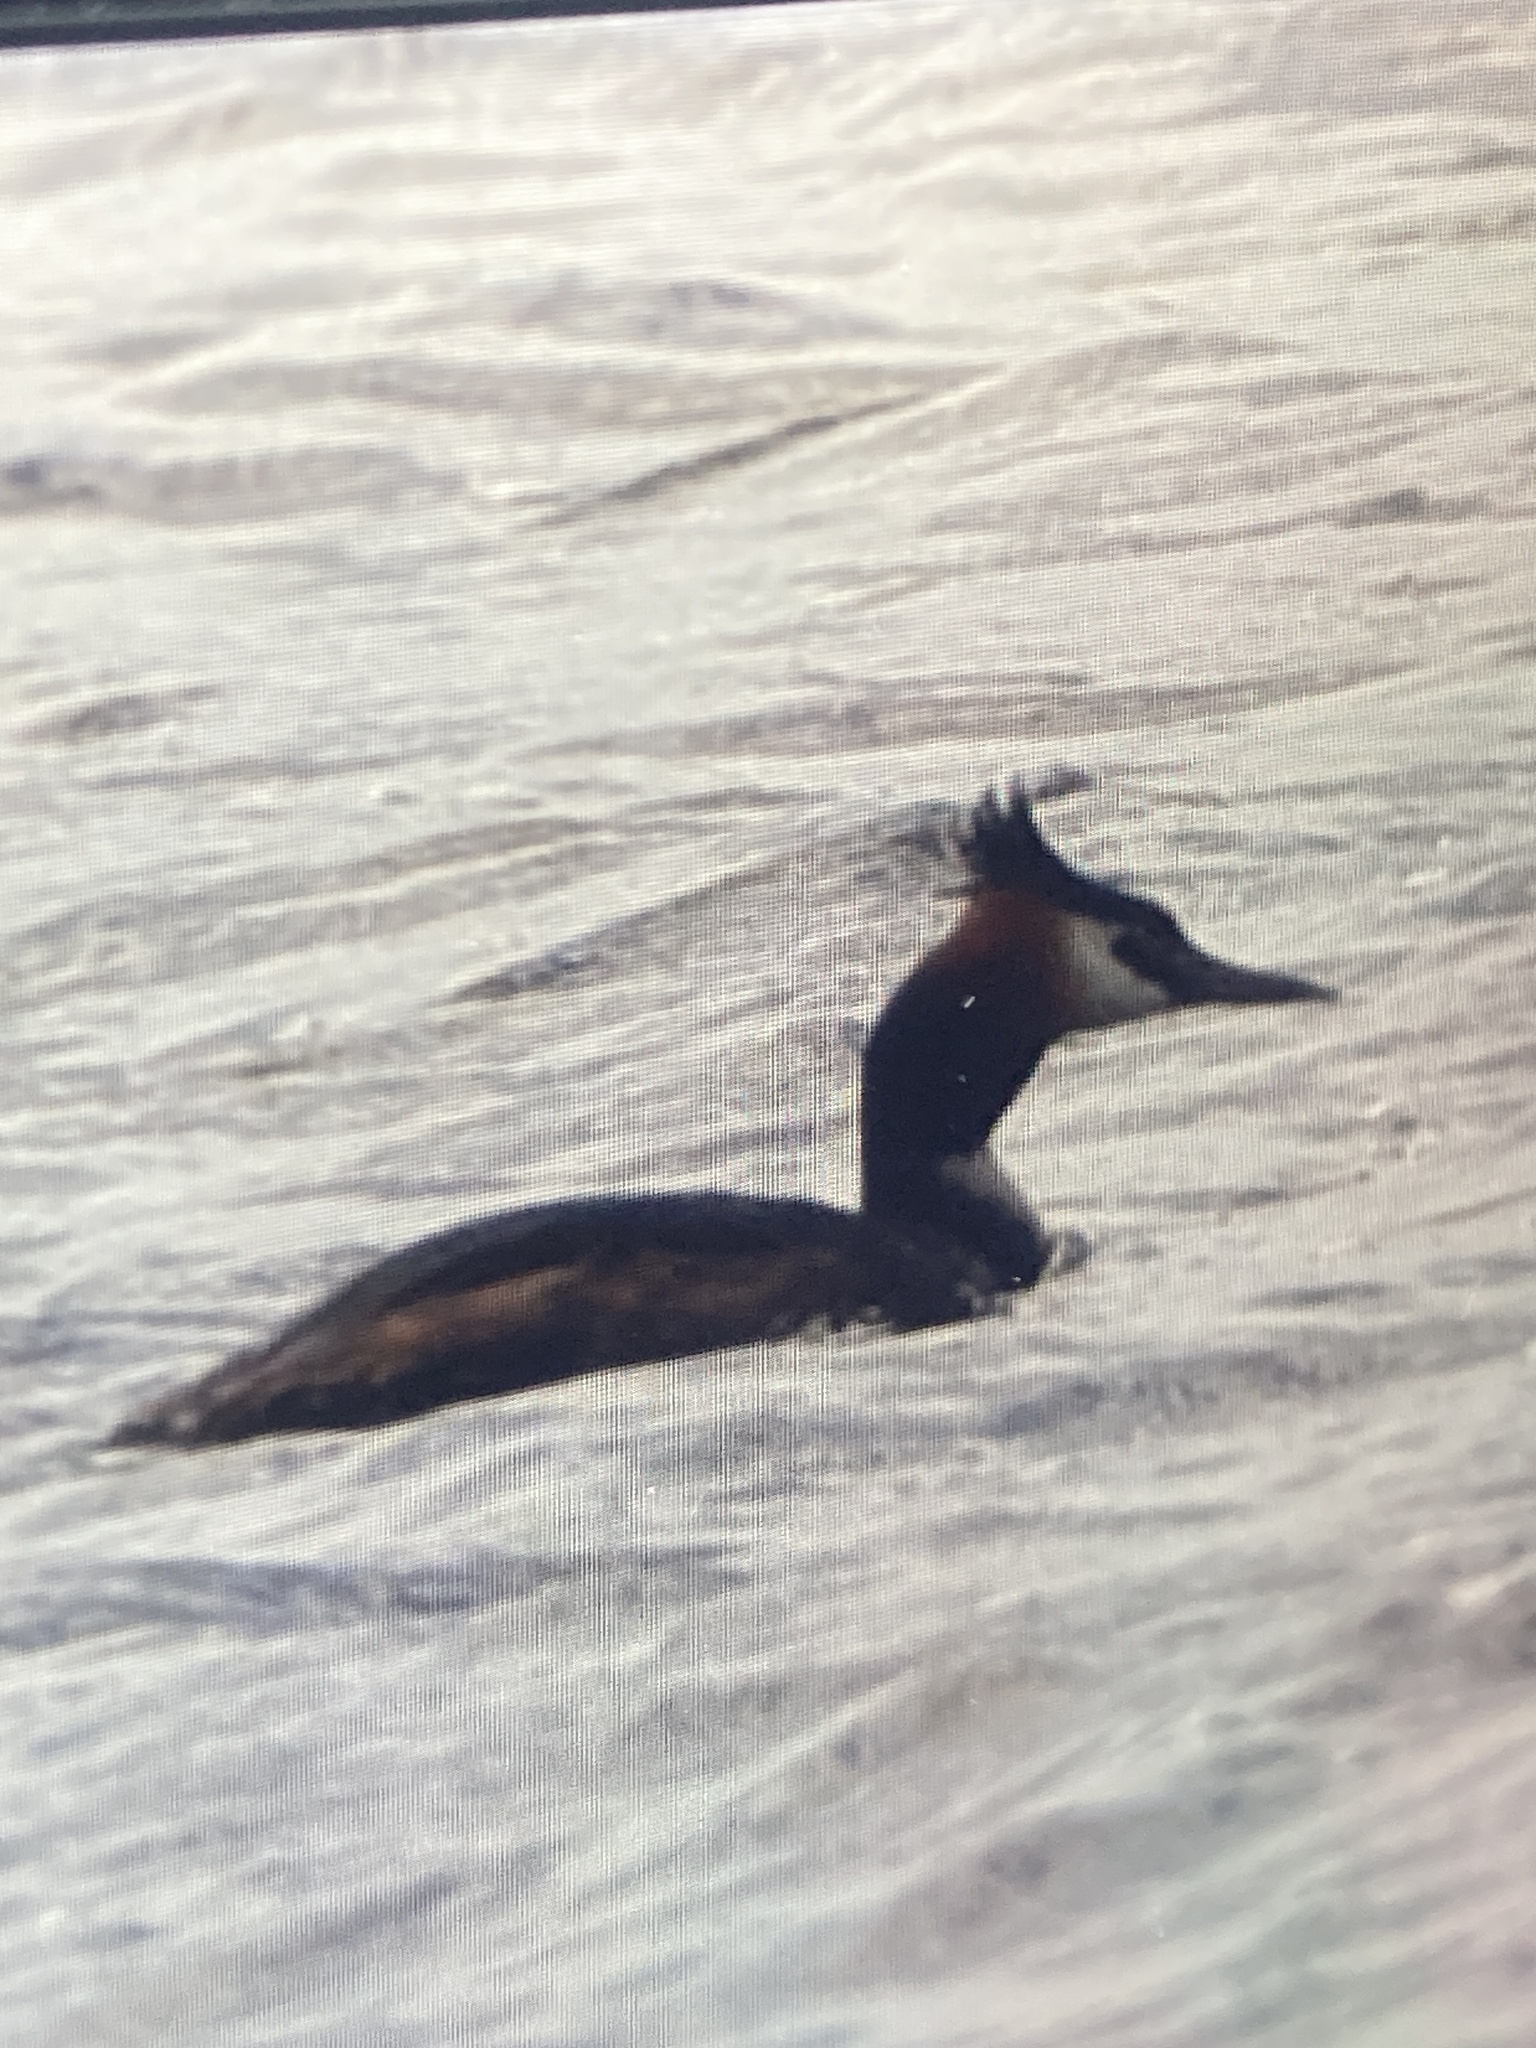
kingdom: Animalia
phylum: Chordata
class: Aves
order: Podicipediformes
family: Podicipedidae
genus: Podiceps
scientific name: Podiceps cristatus
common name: Great crested grebe
